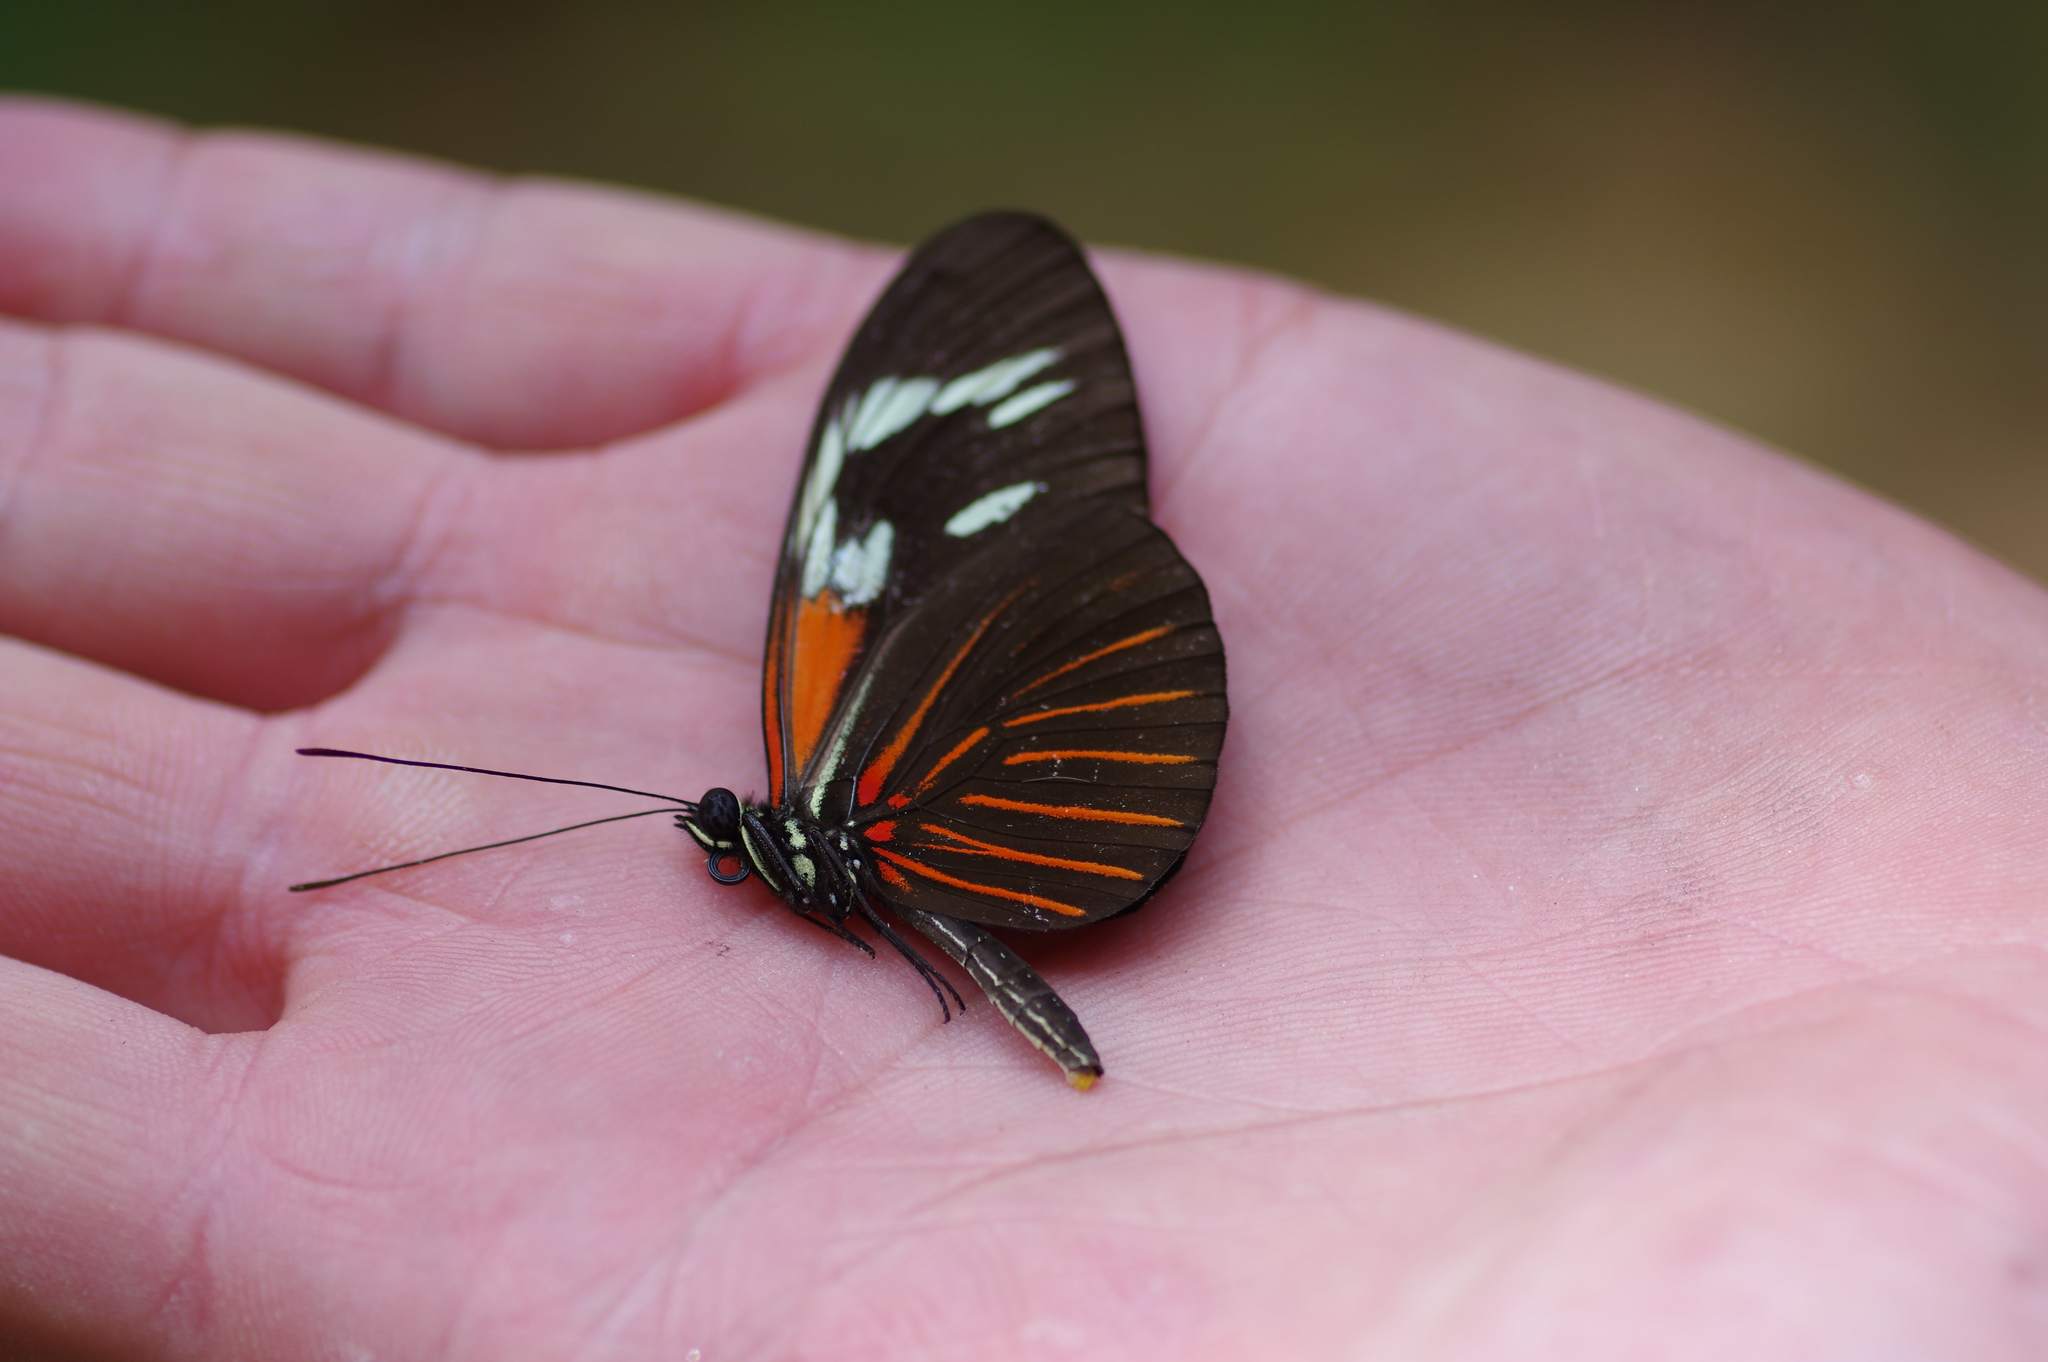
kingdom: Animalia
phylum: Arthropoda
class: Insecta
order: Lepidoptera
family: Nymphalidae
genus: Heliconius
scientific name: Heliconius erato
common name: Common patch longwing
